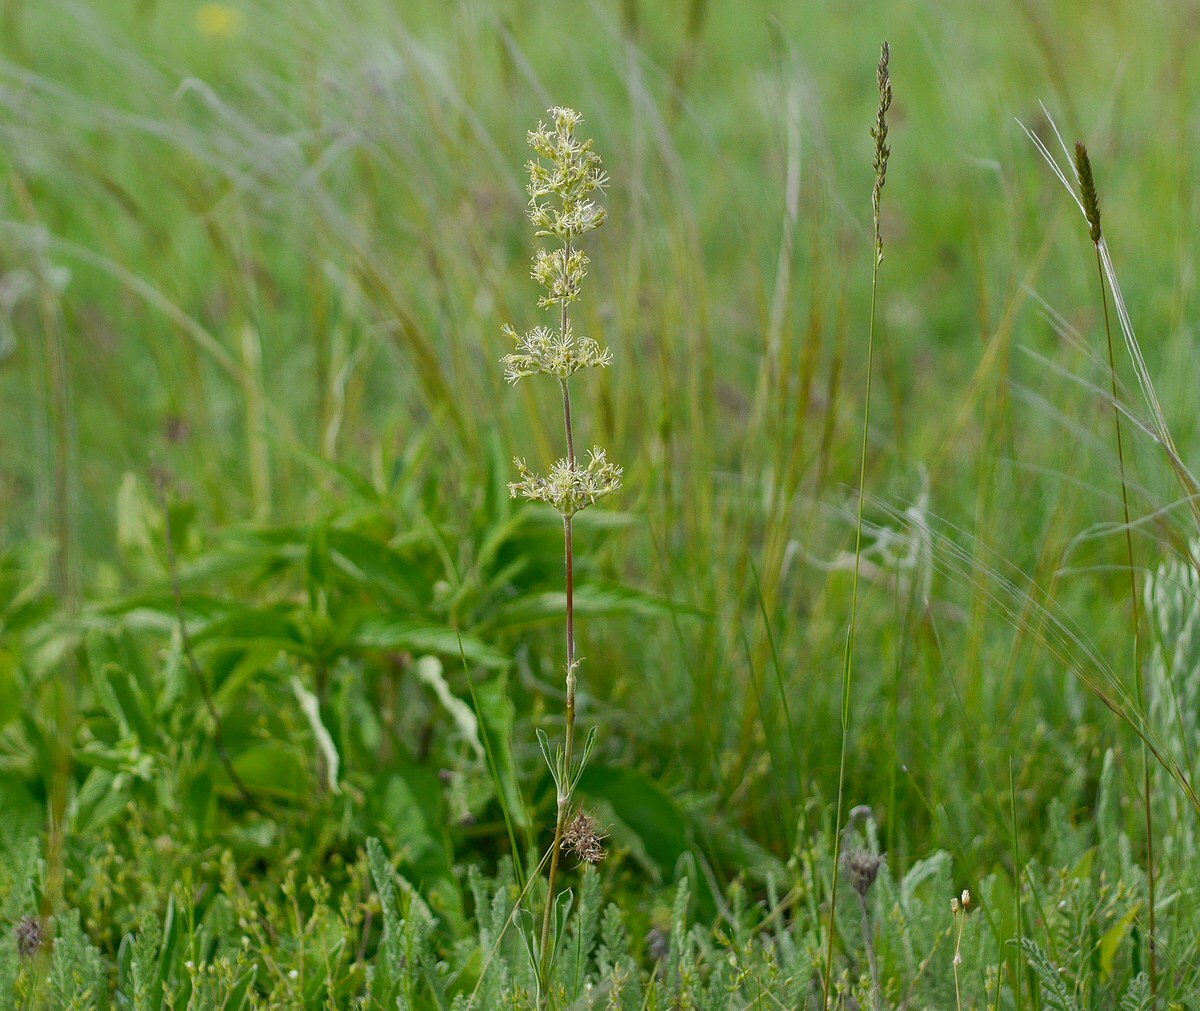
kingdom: Plantae
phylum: Tracheophyta
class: Magnoliopsida
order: Caryophyllales
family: Caryophyllaceae
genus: Silene
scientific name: Silene chersonensis
